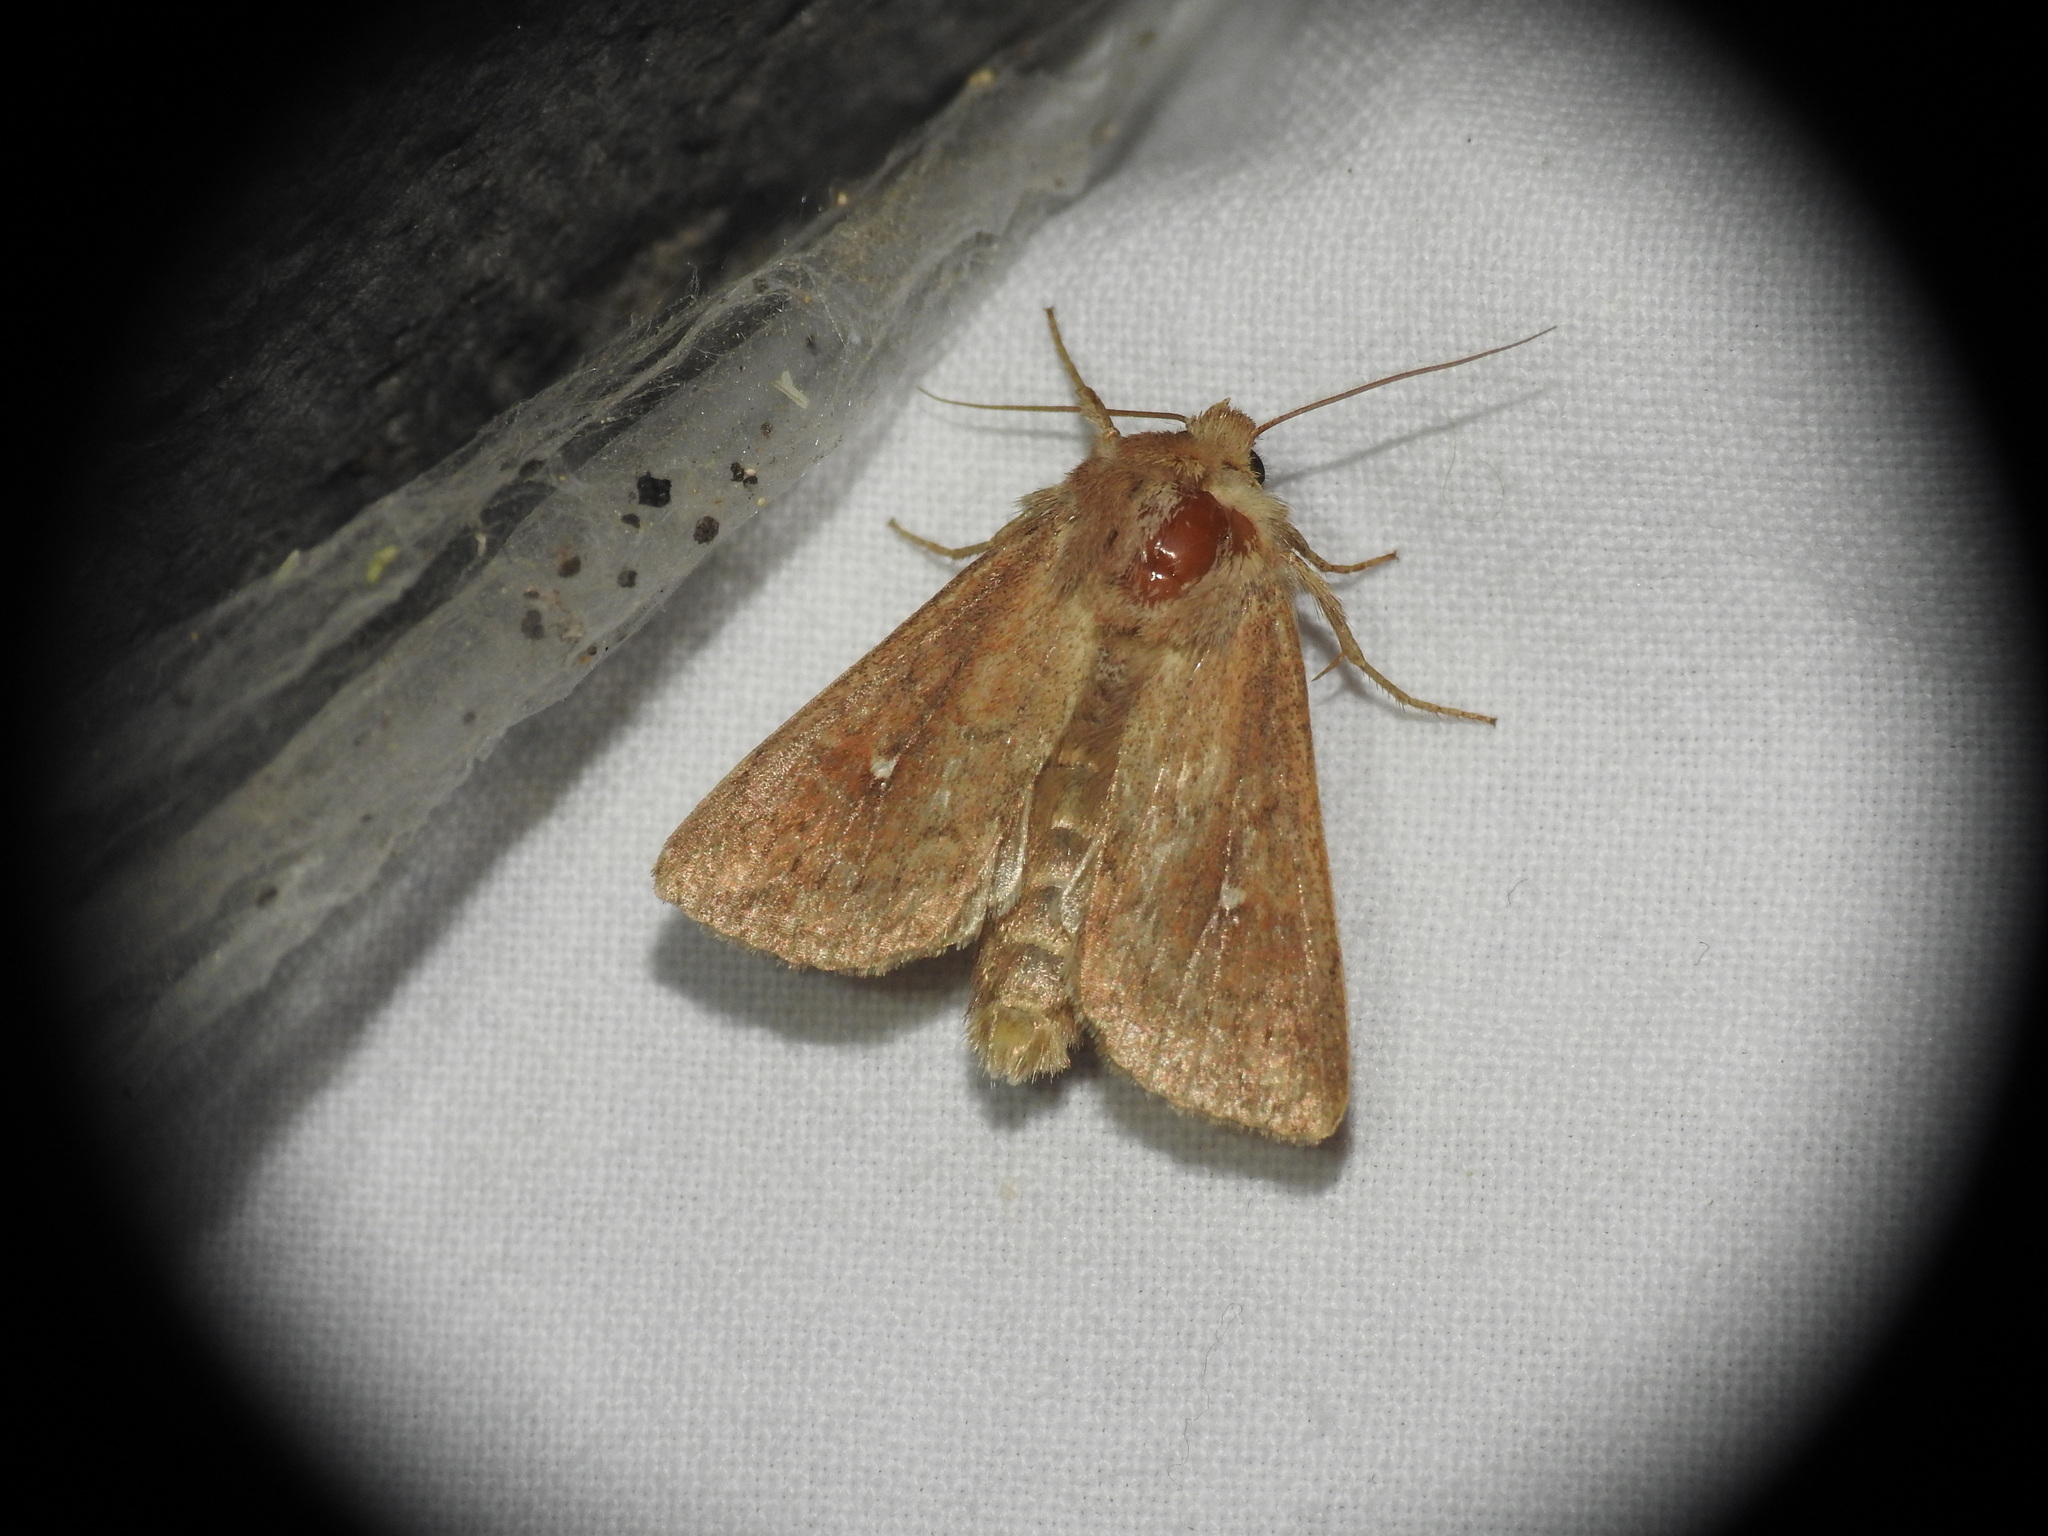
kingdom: Animalia
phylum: Arthropoda
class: Insecta
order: Lepidoptera
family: Noctuidae
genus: Mythimna
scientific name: Mythimna albipuncta
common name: White-point
